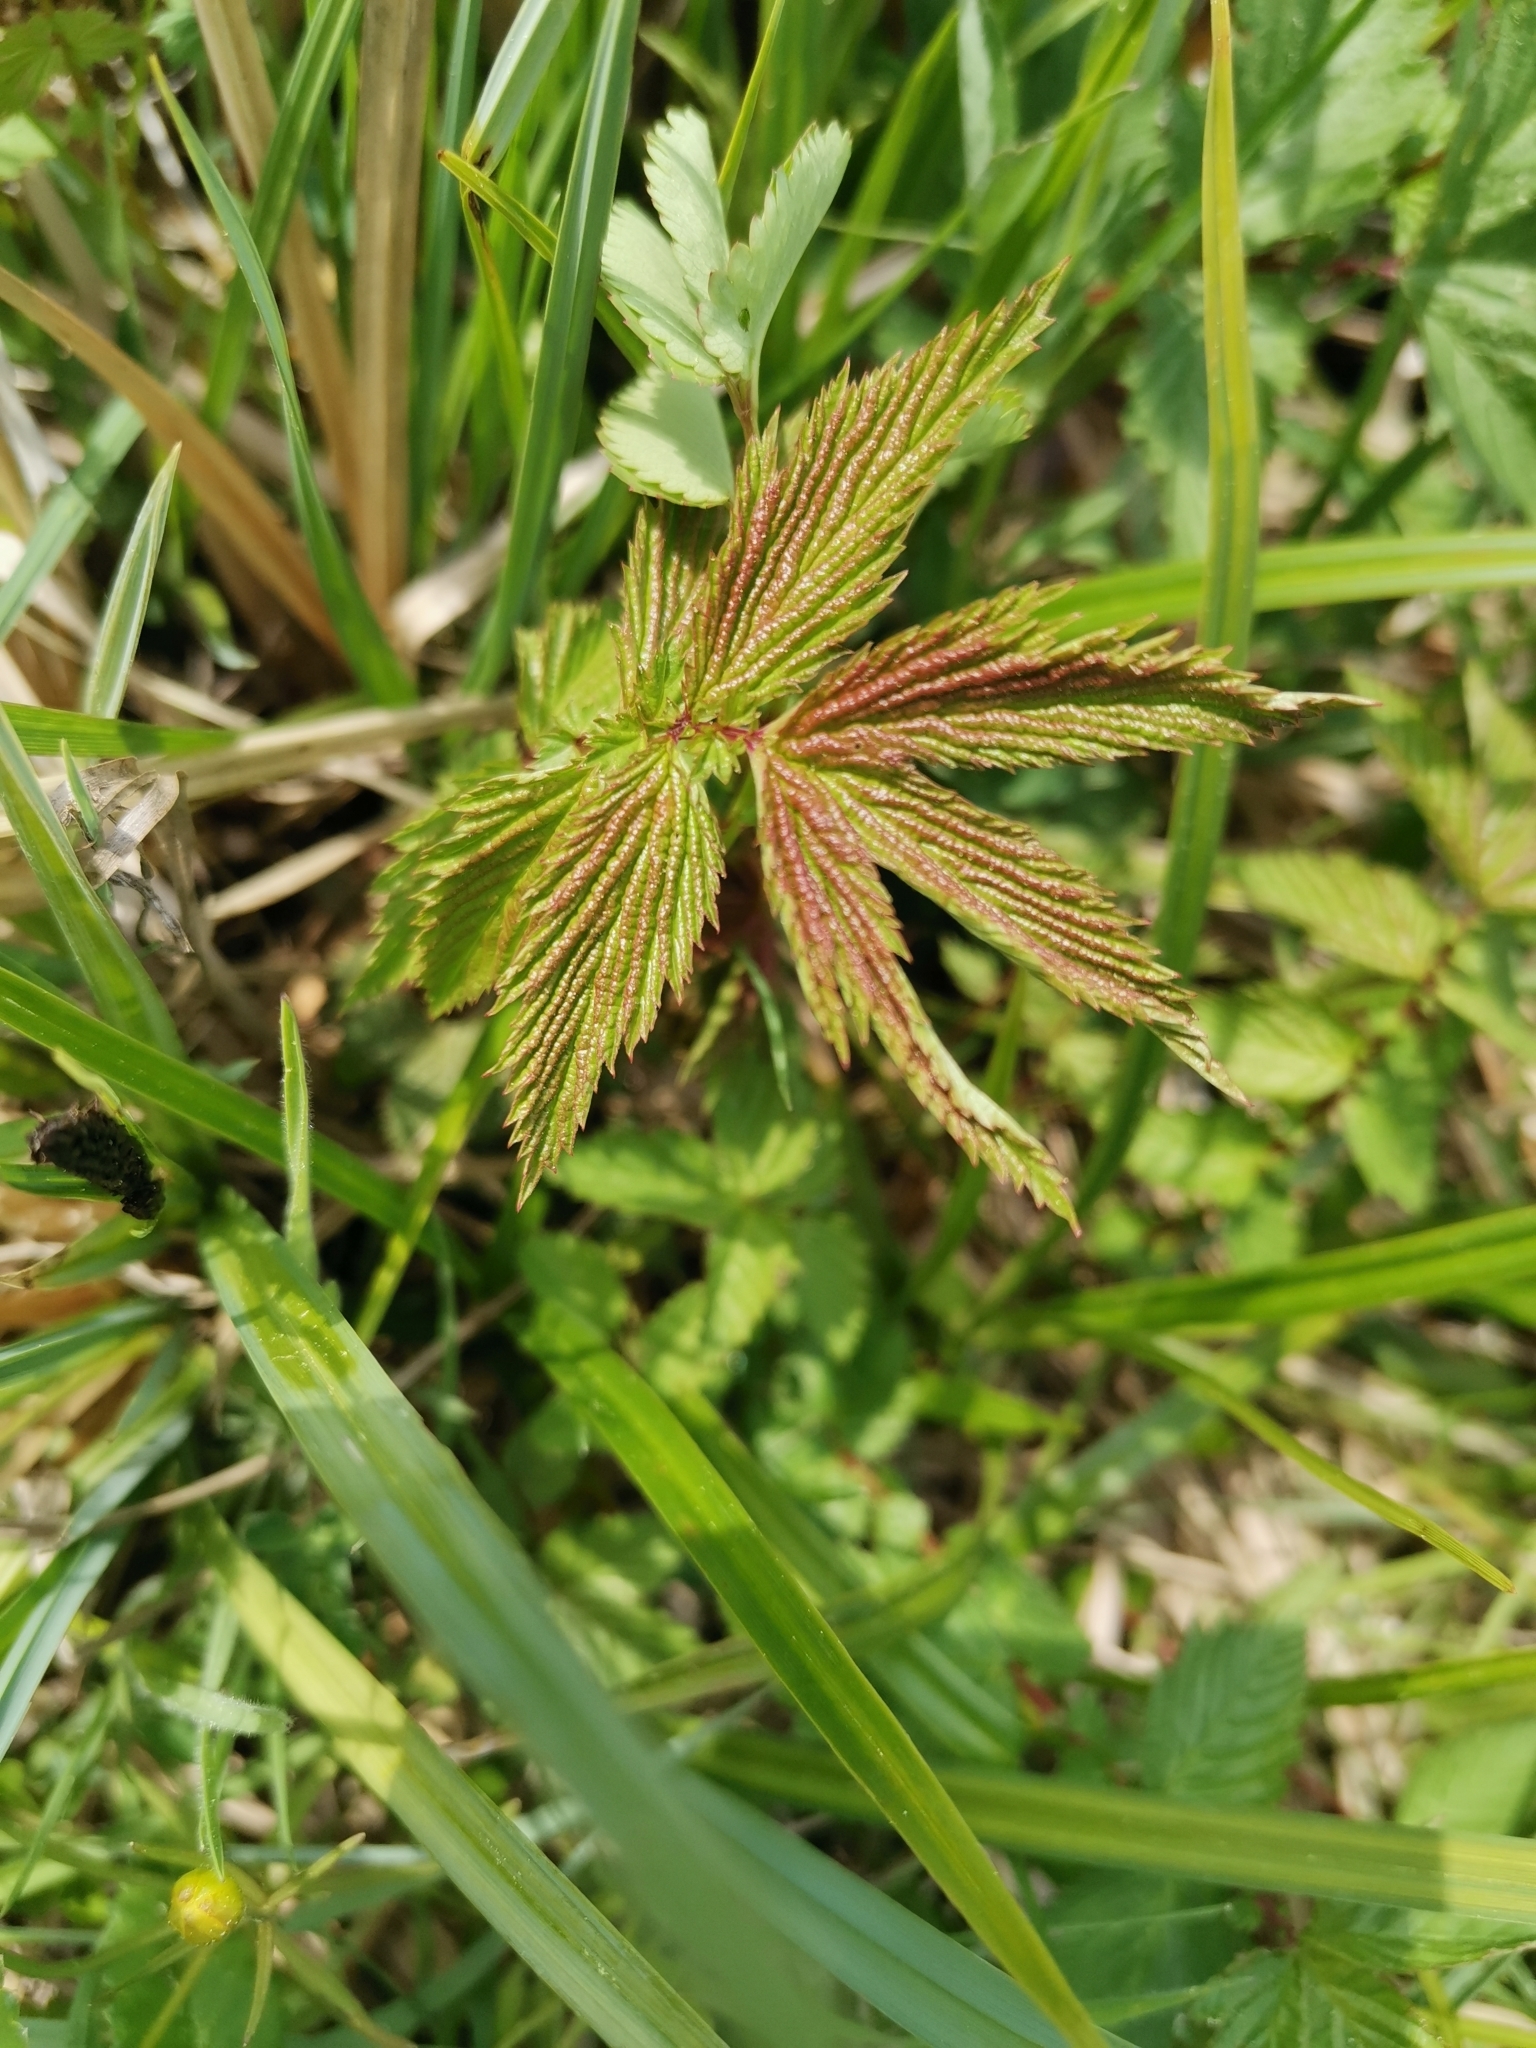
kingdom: Plantae
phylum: Tracheophyta
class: Magnoliopsida
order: Rosales
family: Rosaceae
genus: Filipendula
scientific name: Filipendula ulmaria
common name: Meadowsweet
